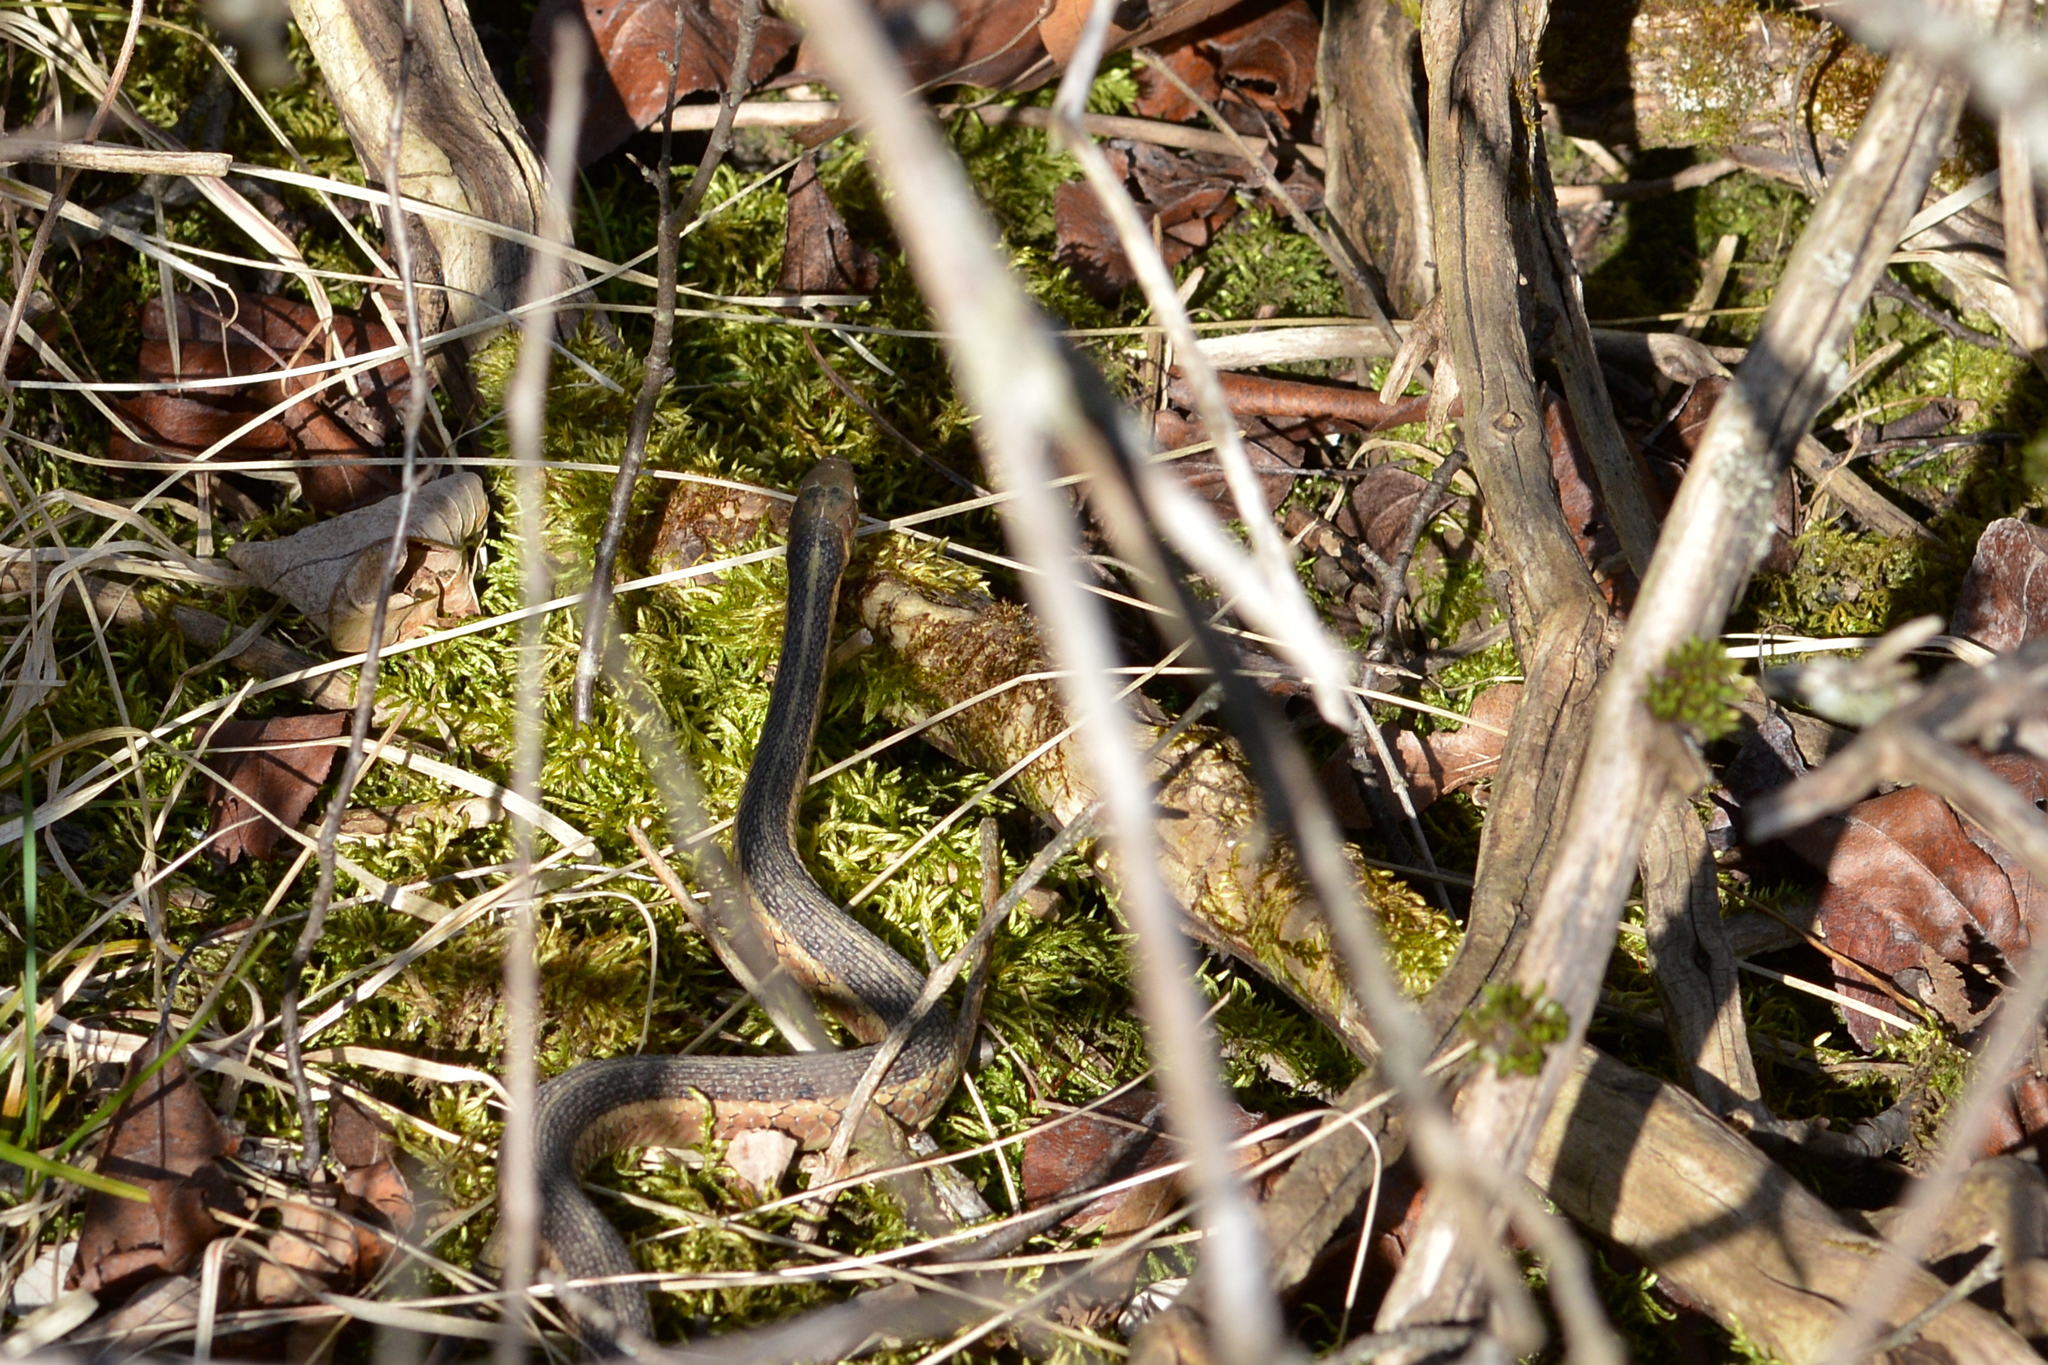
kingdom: Animalia
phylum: Chordata
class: Squamata
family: Colubridae
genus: Thamnophis
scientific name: Thamnophis sirtalis
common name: Common garter snake
